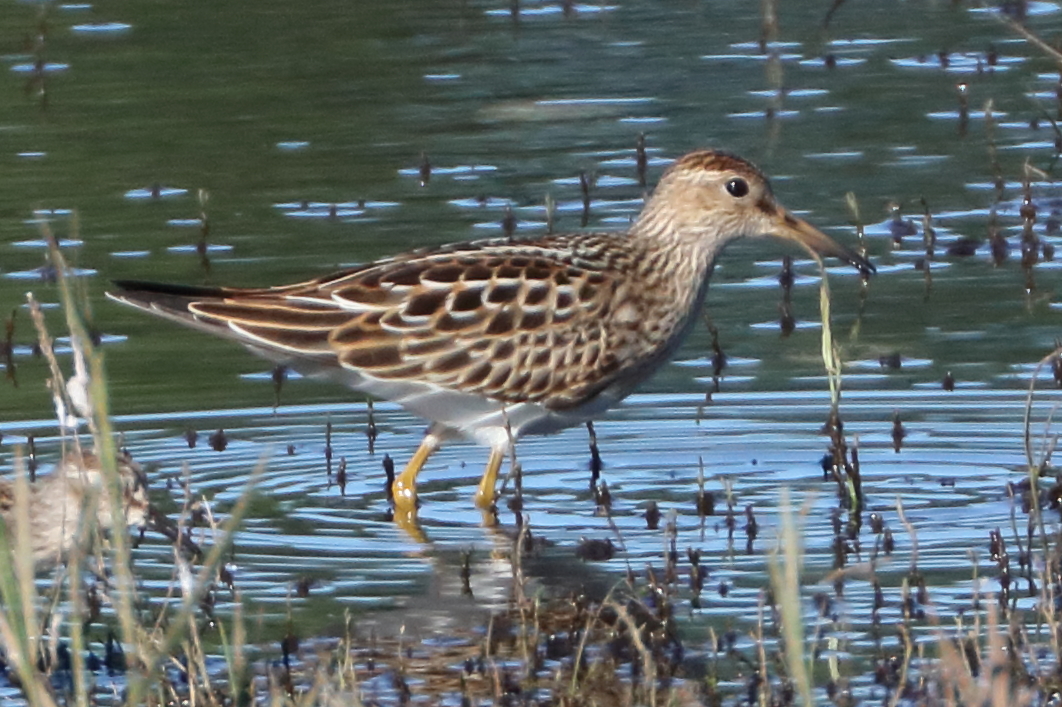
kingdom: Animalia
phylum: Chordata
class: Aves
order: Charadriiformes
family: Scolopacidae
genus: Calidris
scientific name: Calidris melanotos
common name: Pectoral sandpiper
